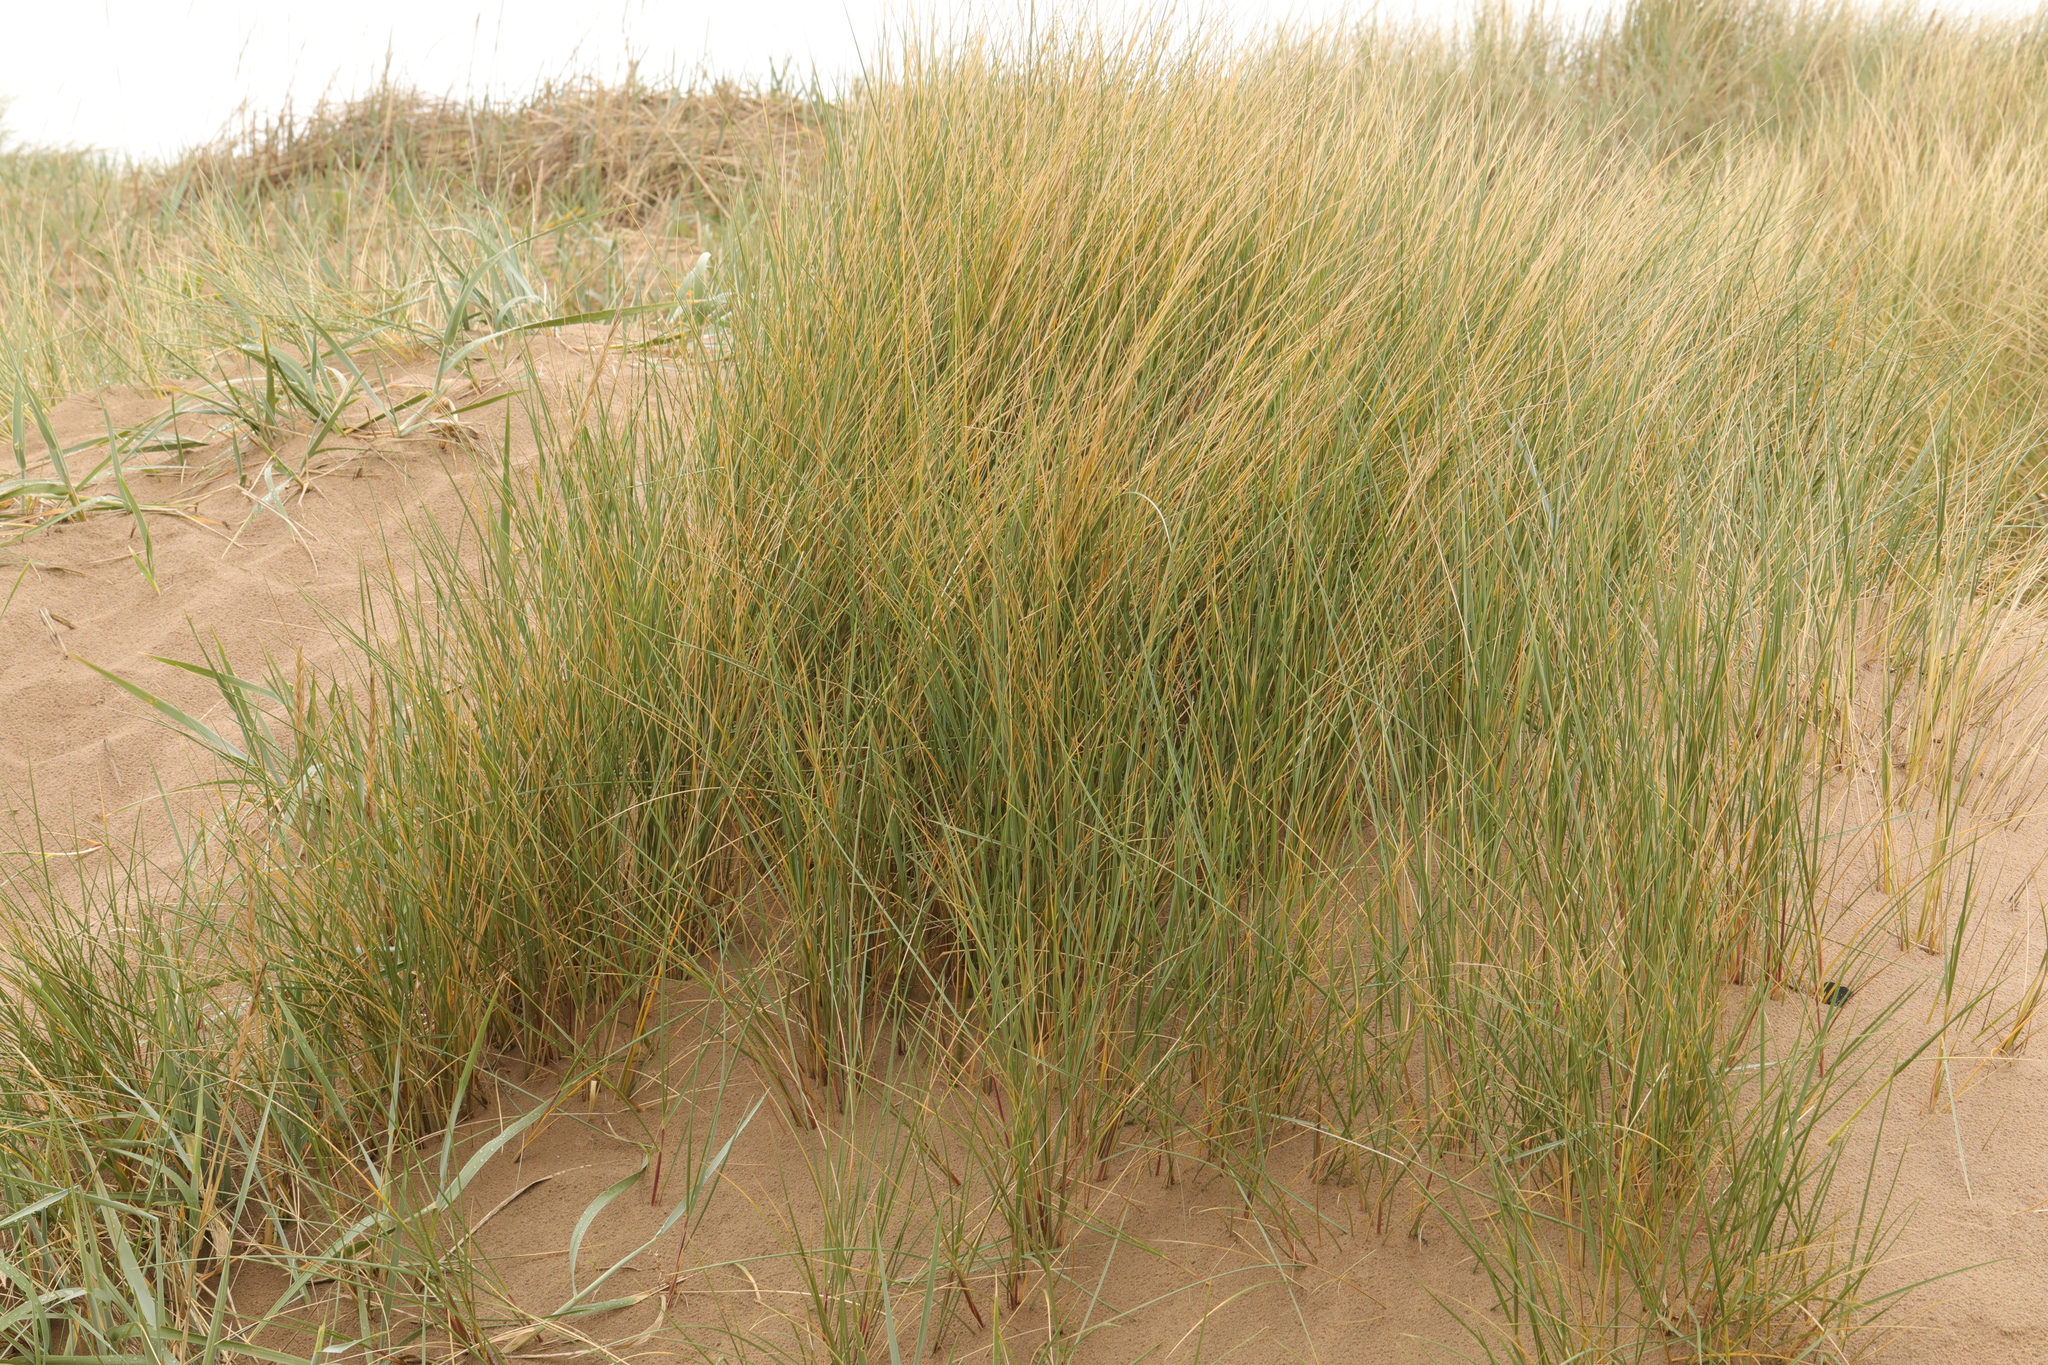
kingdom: Plantae
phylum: Tracheophyta
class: Liliopsida
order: Poales
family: Poaceae
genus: Calamagrostis
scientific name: Calamagrostis arenaria
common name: European beachgrass
